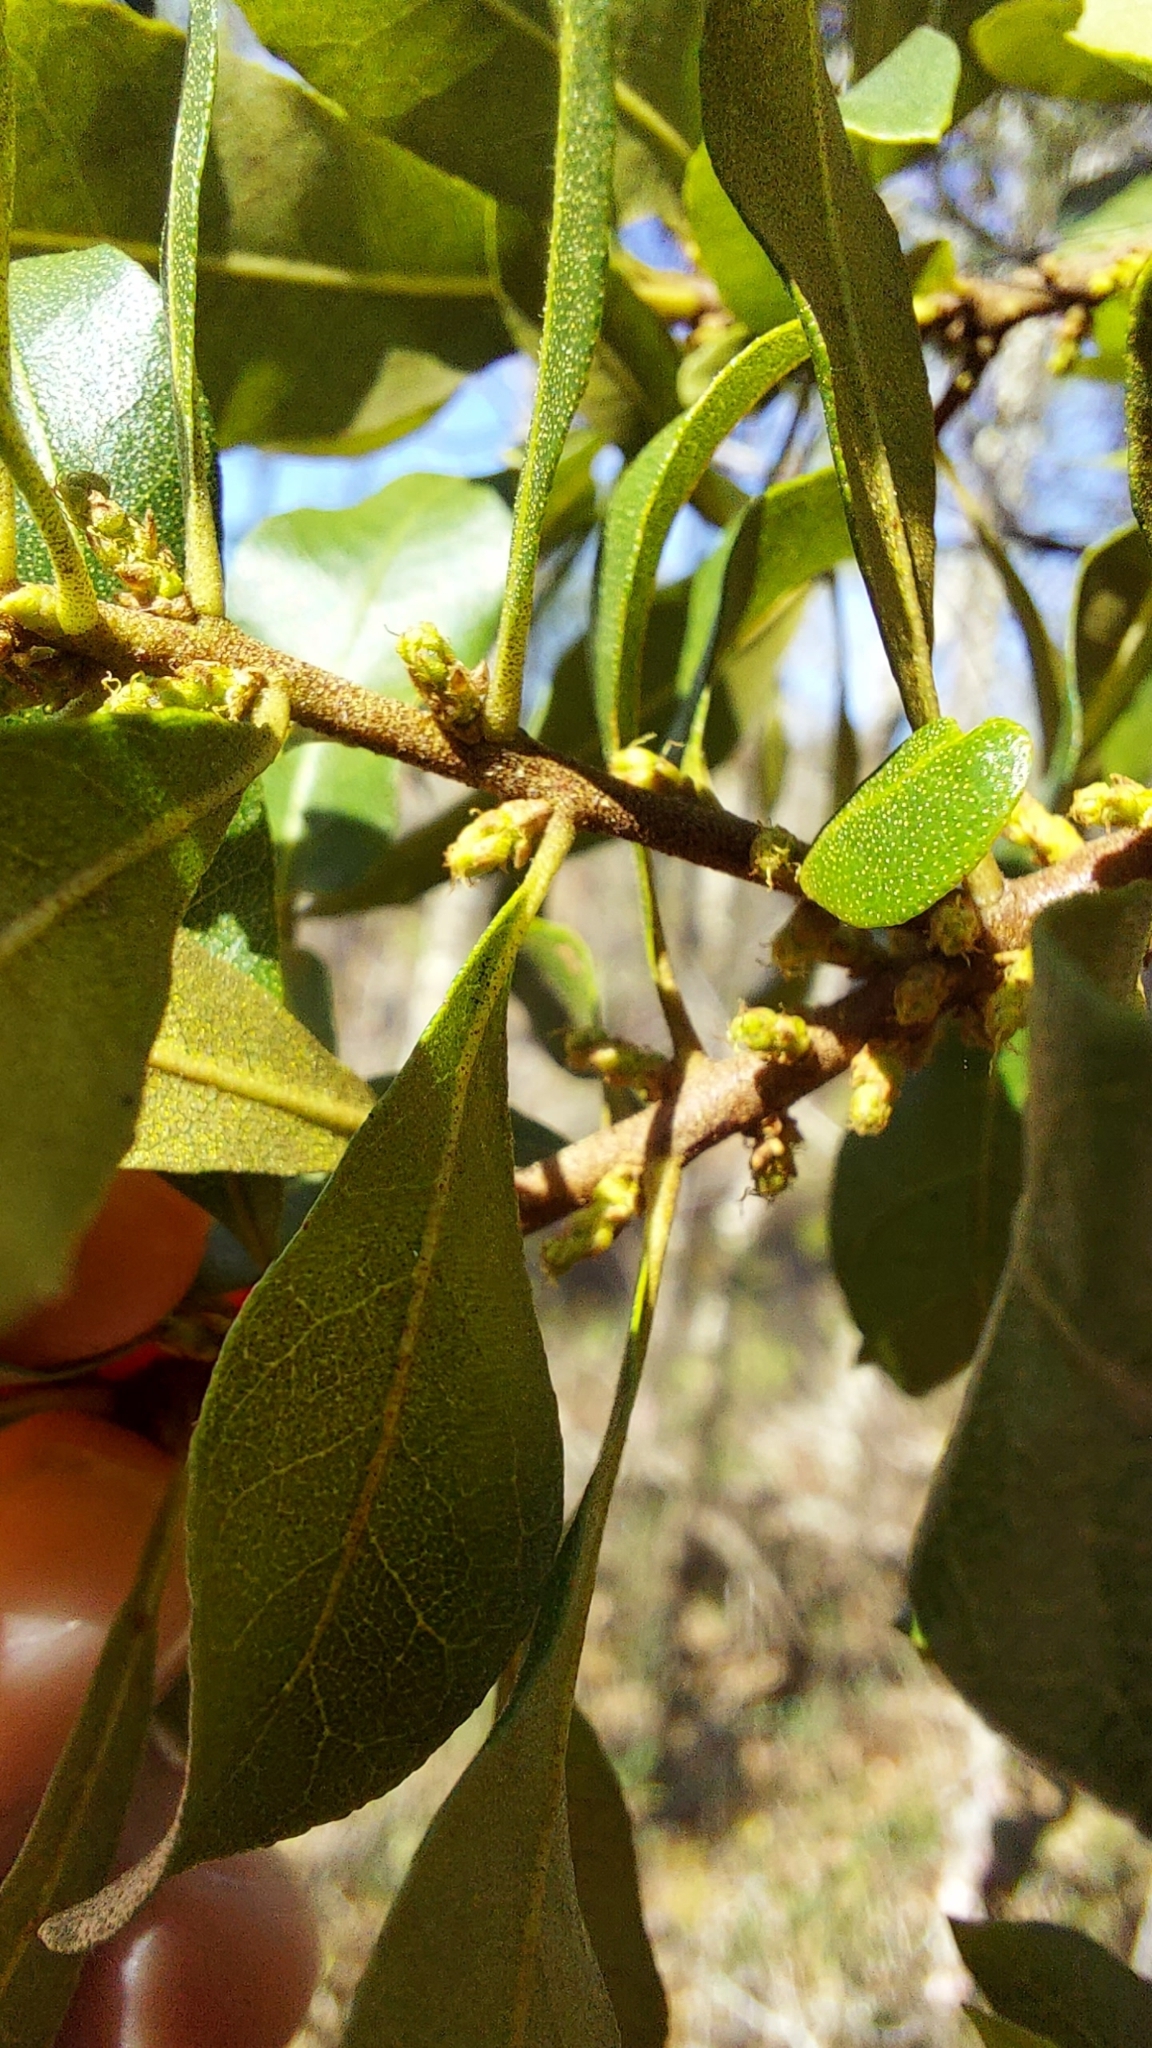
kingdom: Plantae
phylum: Tracheophyta
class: Magnoliopsida
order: Fagales
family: Myricaceae
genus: Morella
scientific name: Morella cerifera
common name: Wax myrtle
